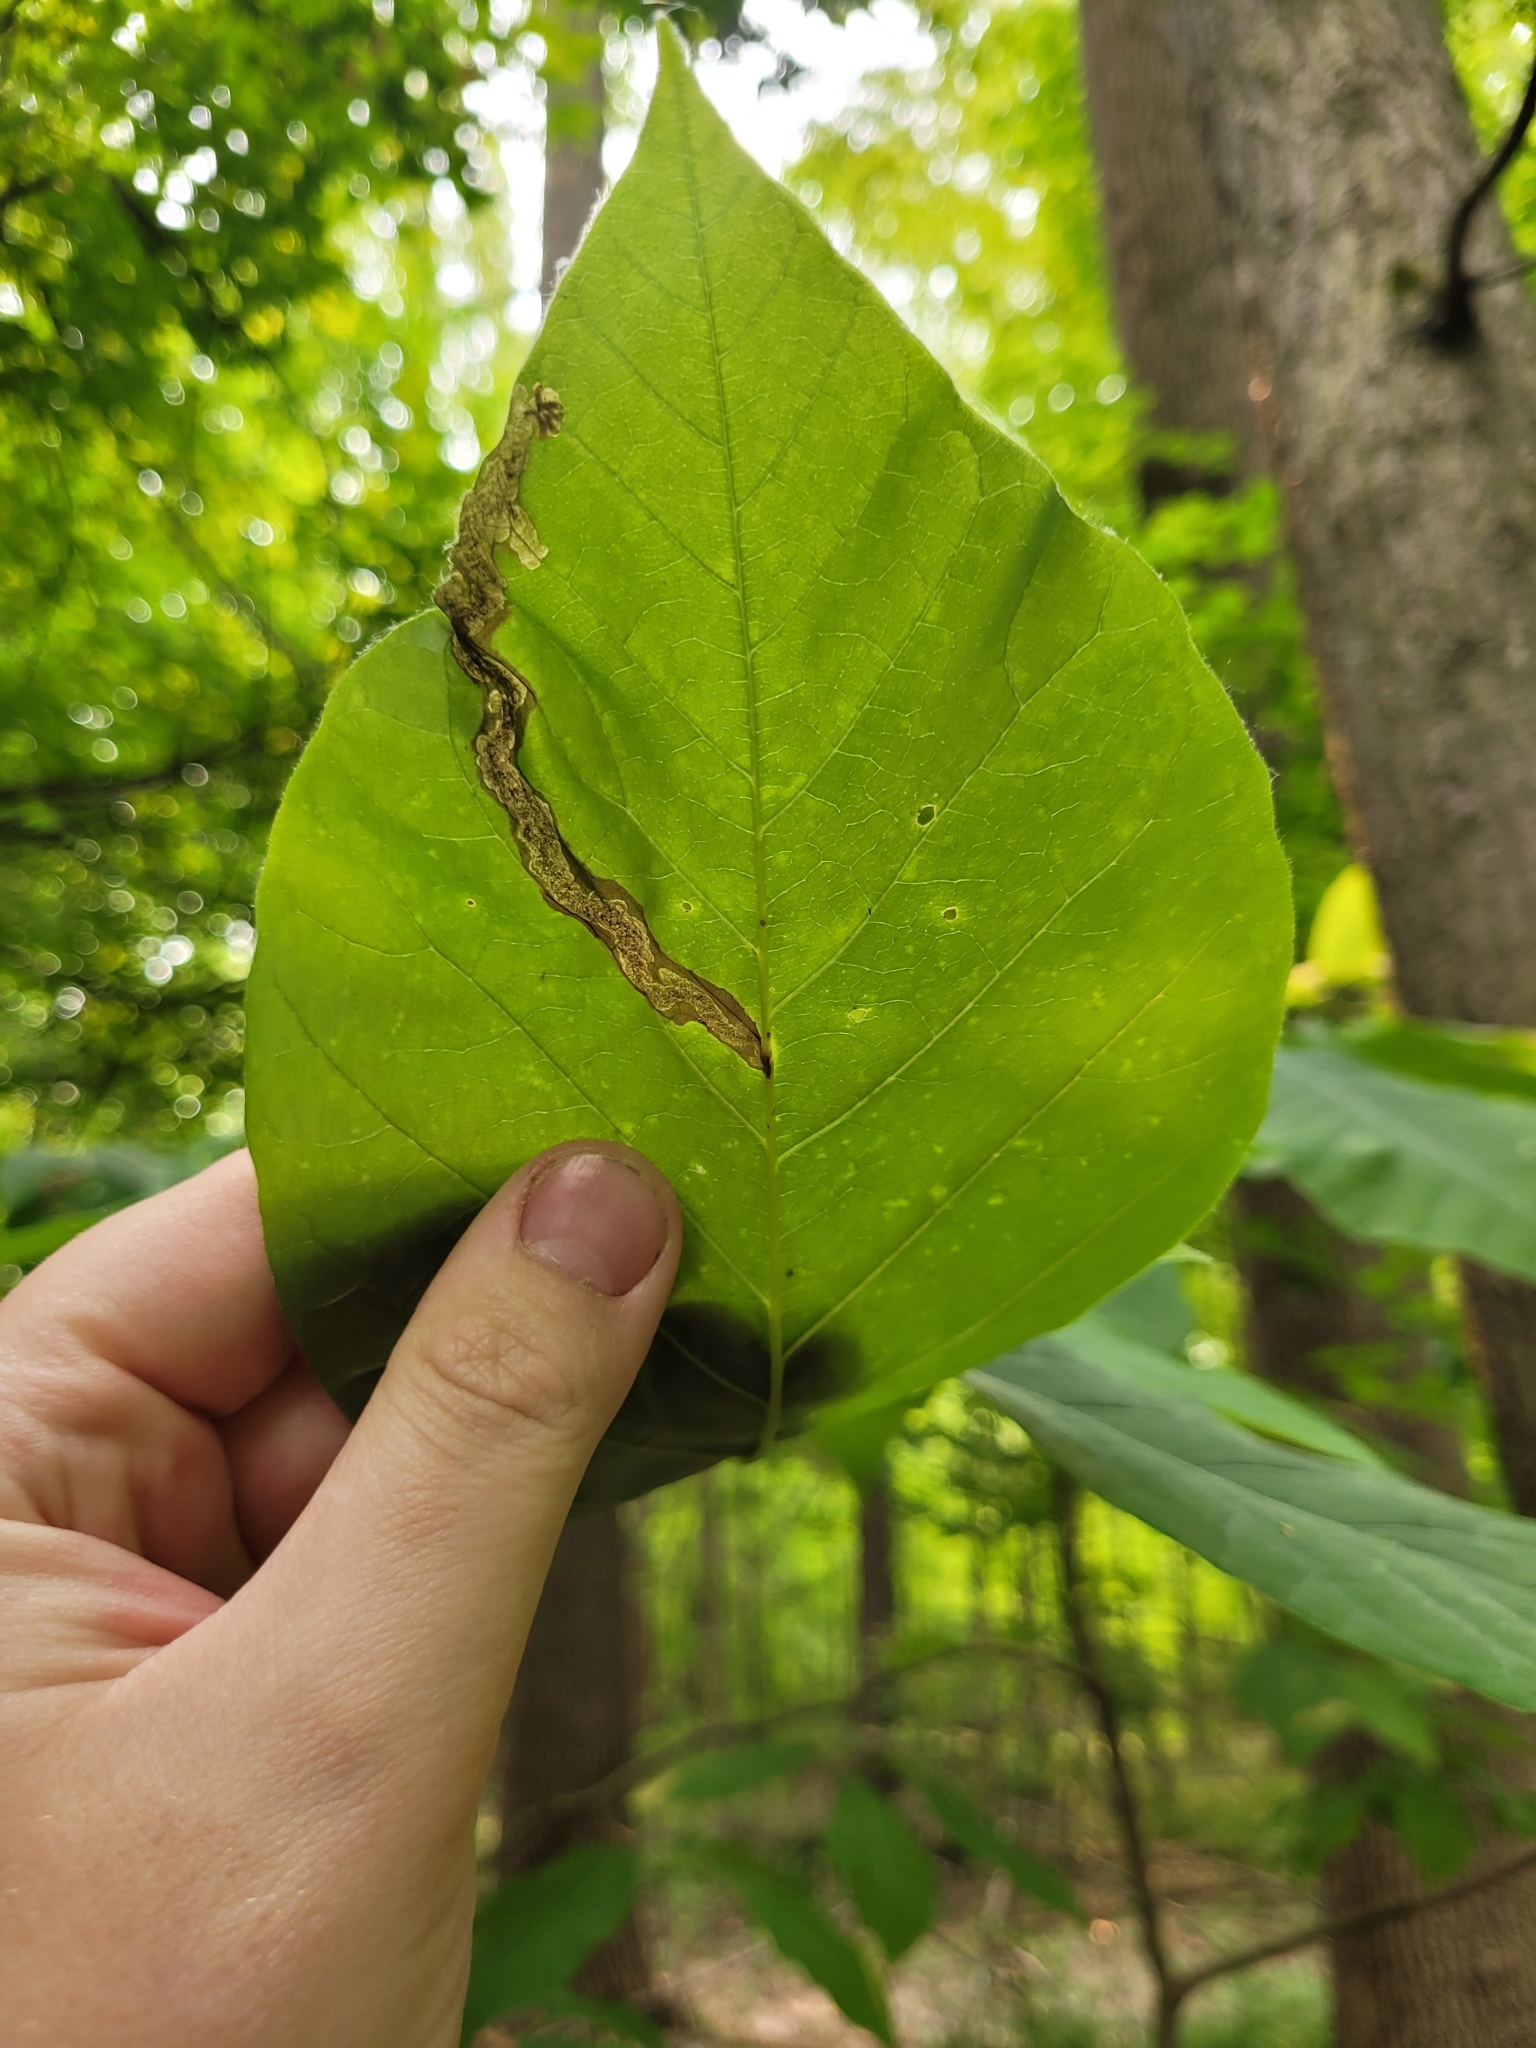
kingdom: Animalia
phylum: Arthropoda
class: Insecta
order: Coleoptera
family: Curculionidae
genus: Odontopus
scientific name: Odontopus calceatus
